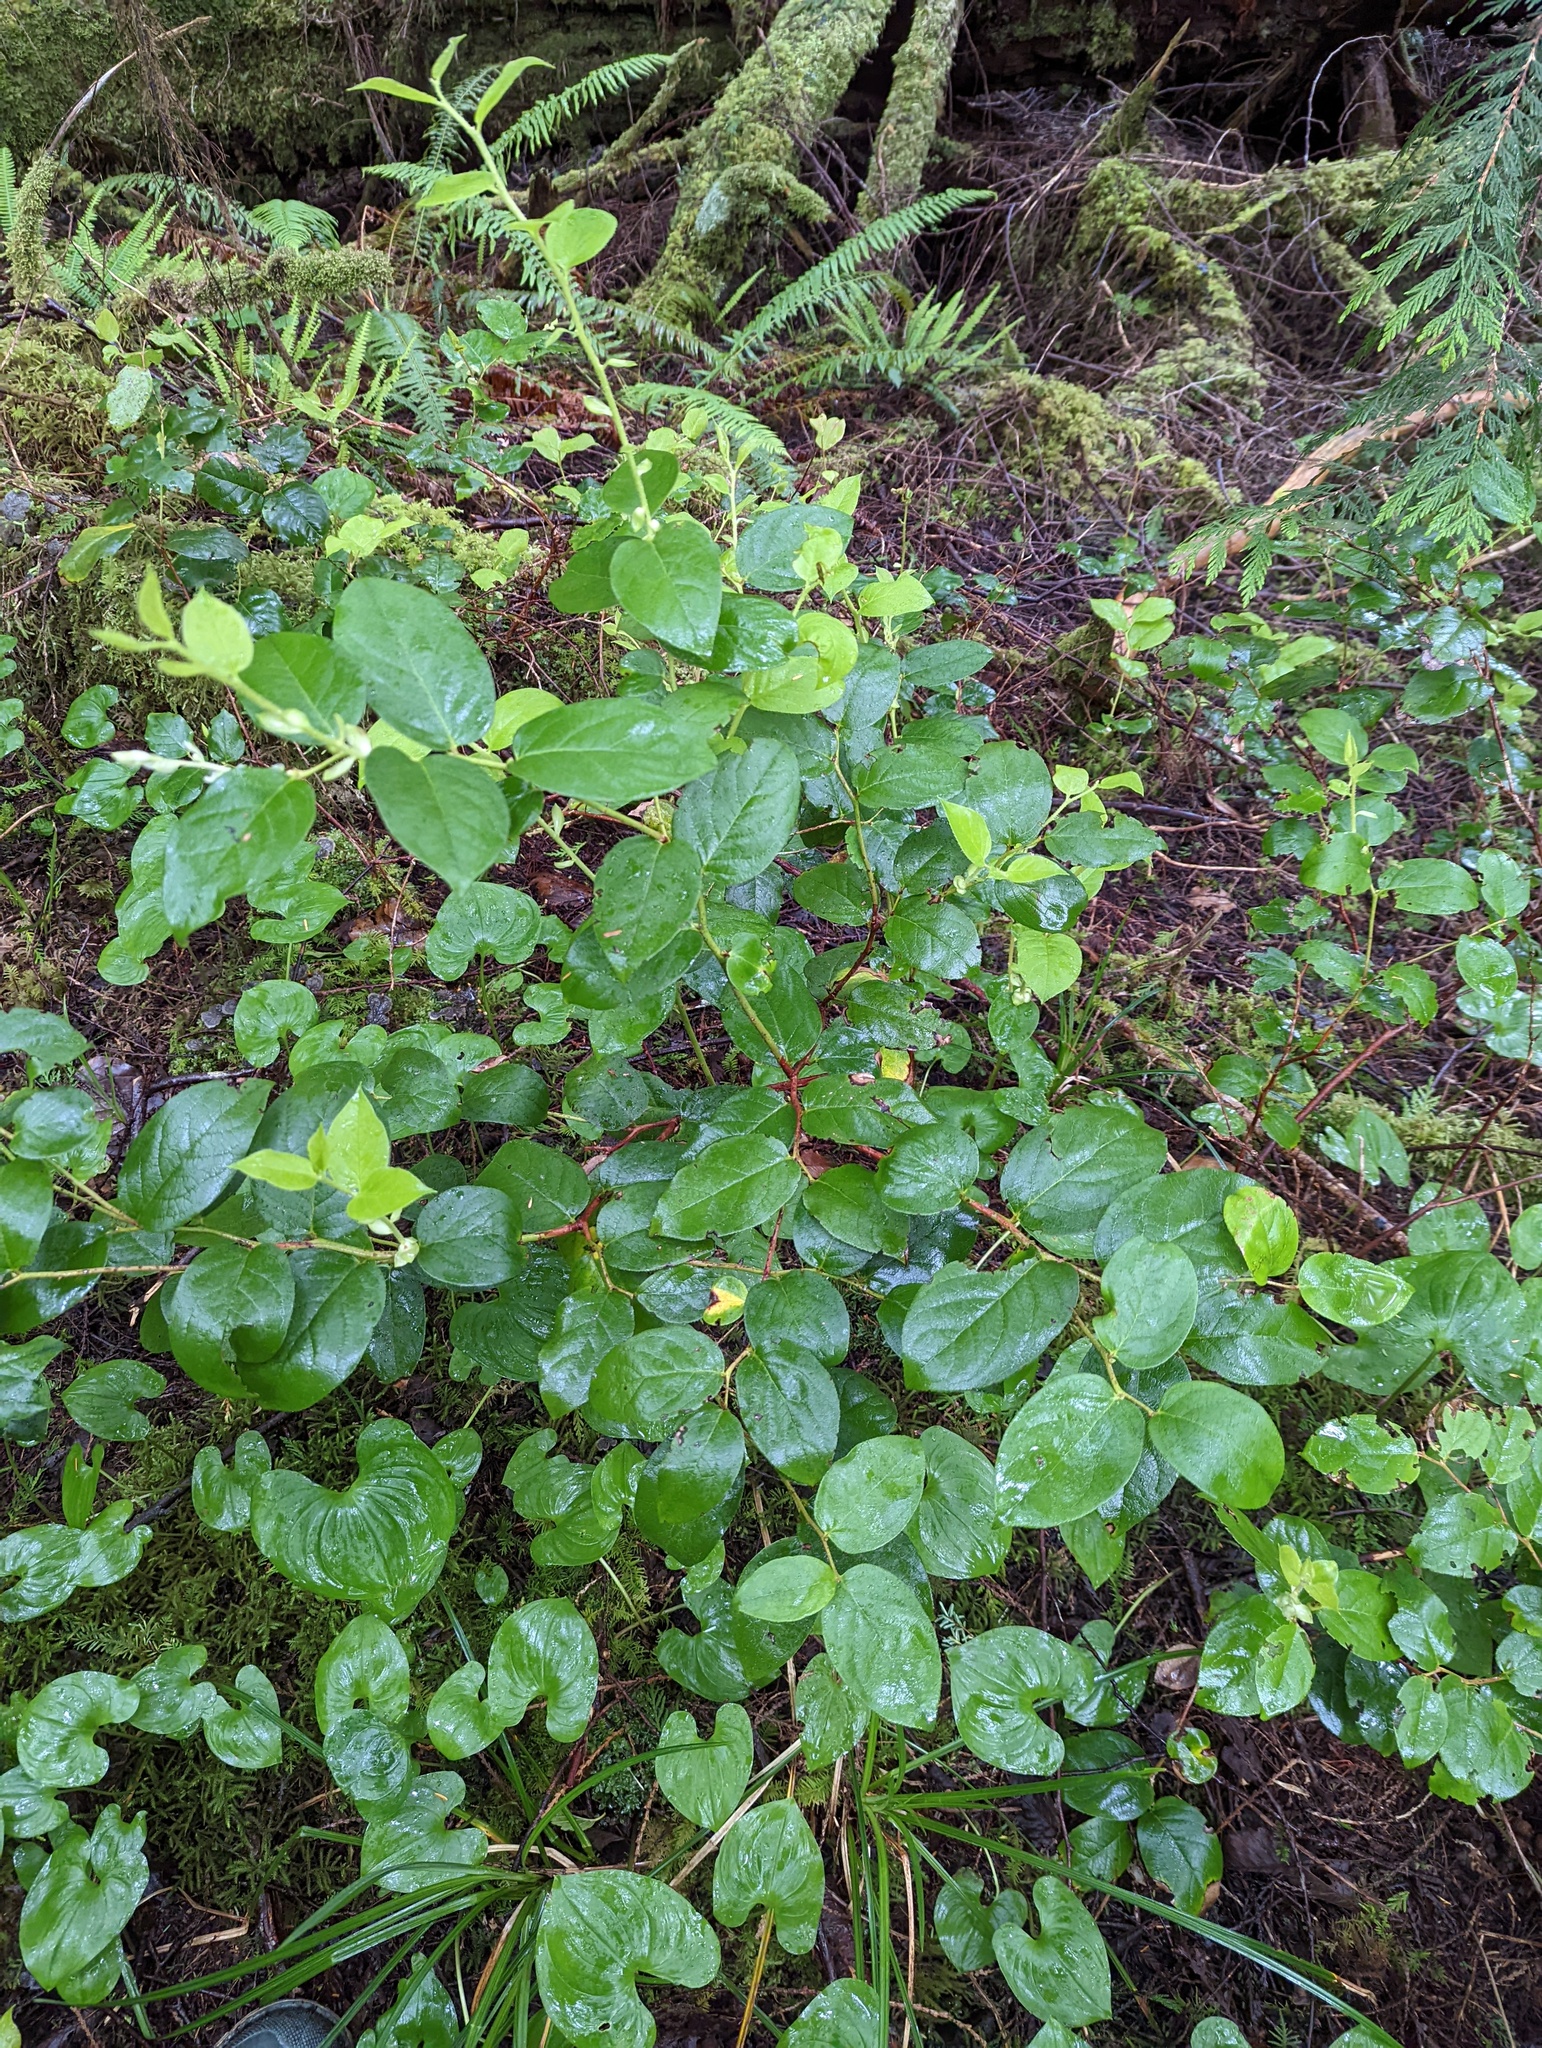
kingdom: Plantae
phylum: Tracheophyta
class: Magnoliopsida
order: Ericales
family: Ericaceae
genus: Gaultheria
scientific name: Gaultheria shallon
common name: Shallon
